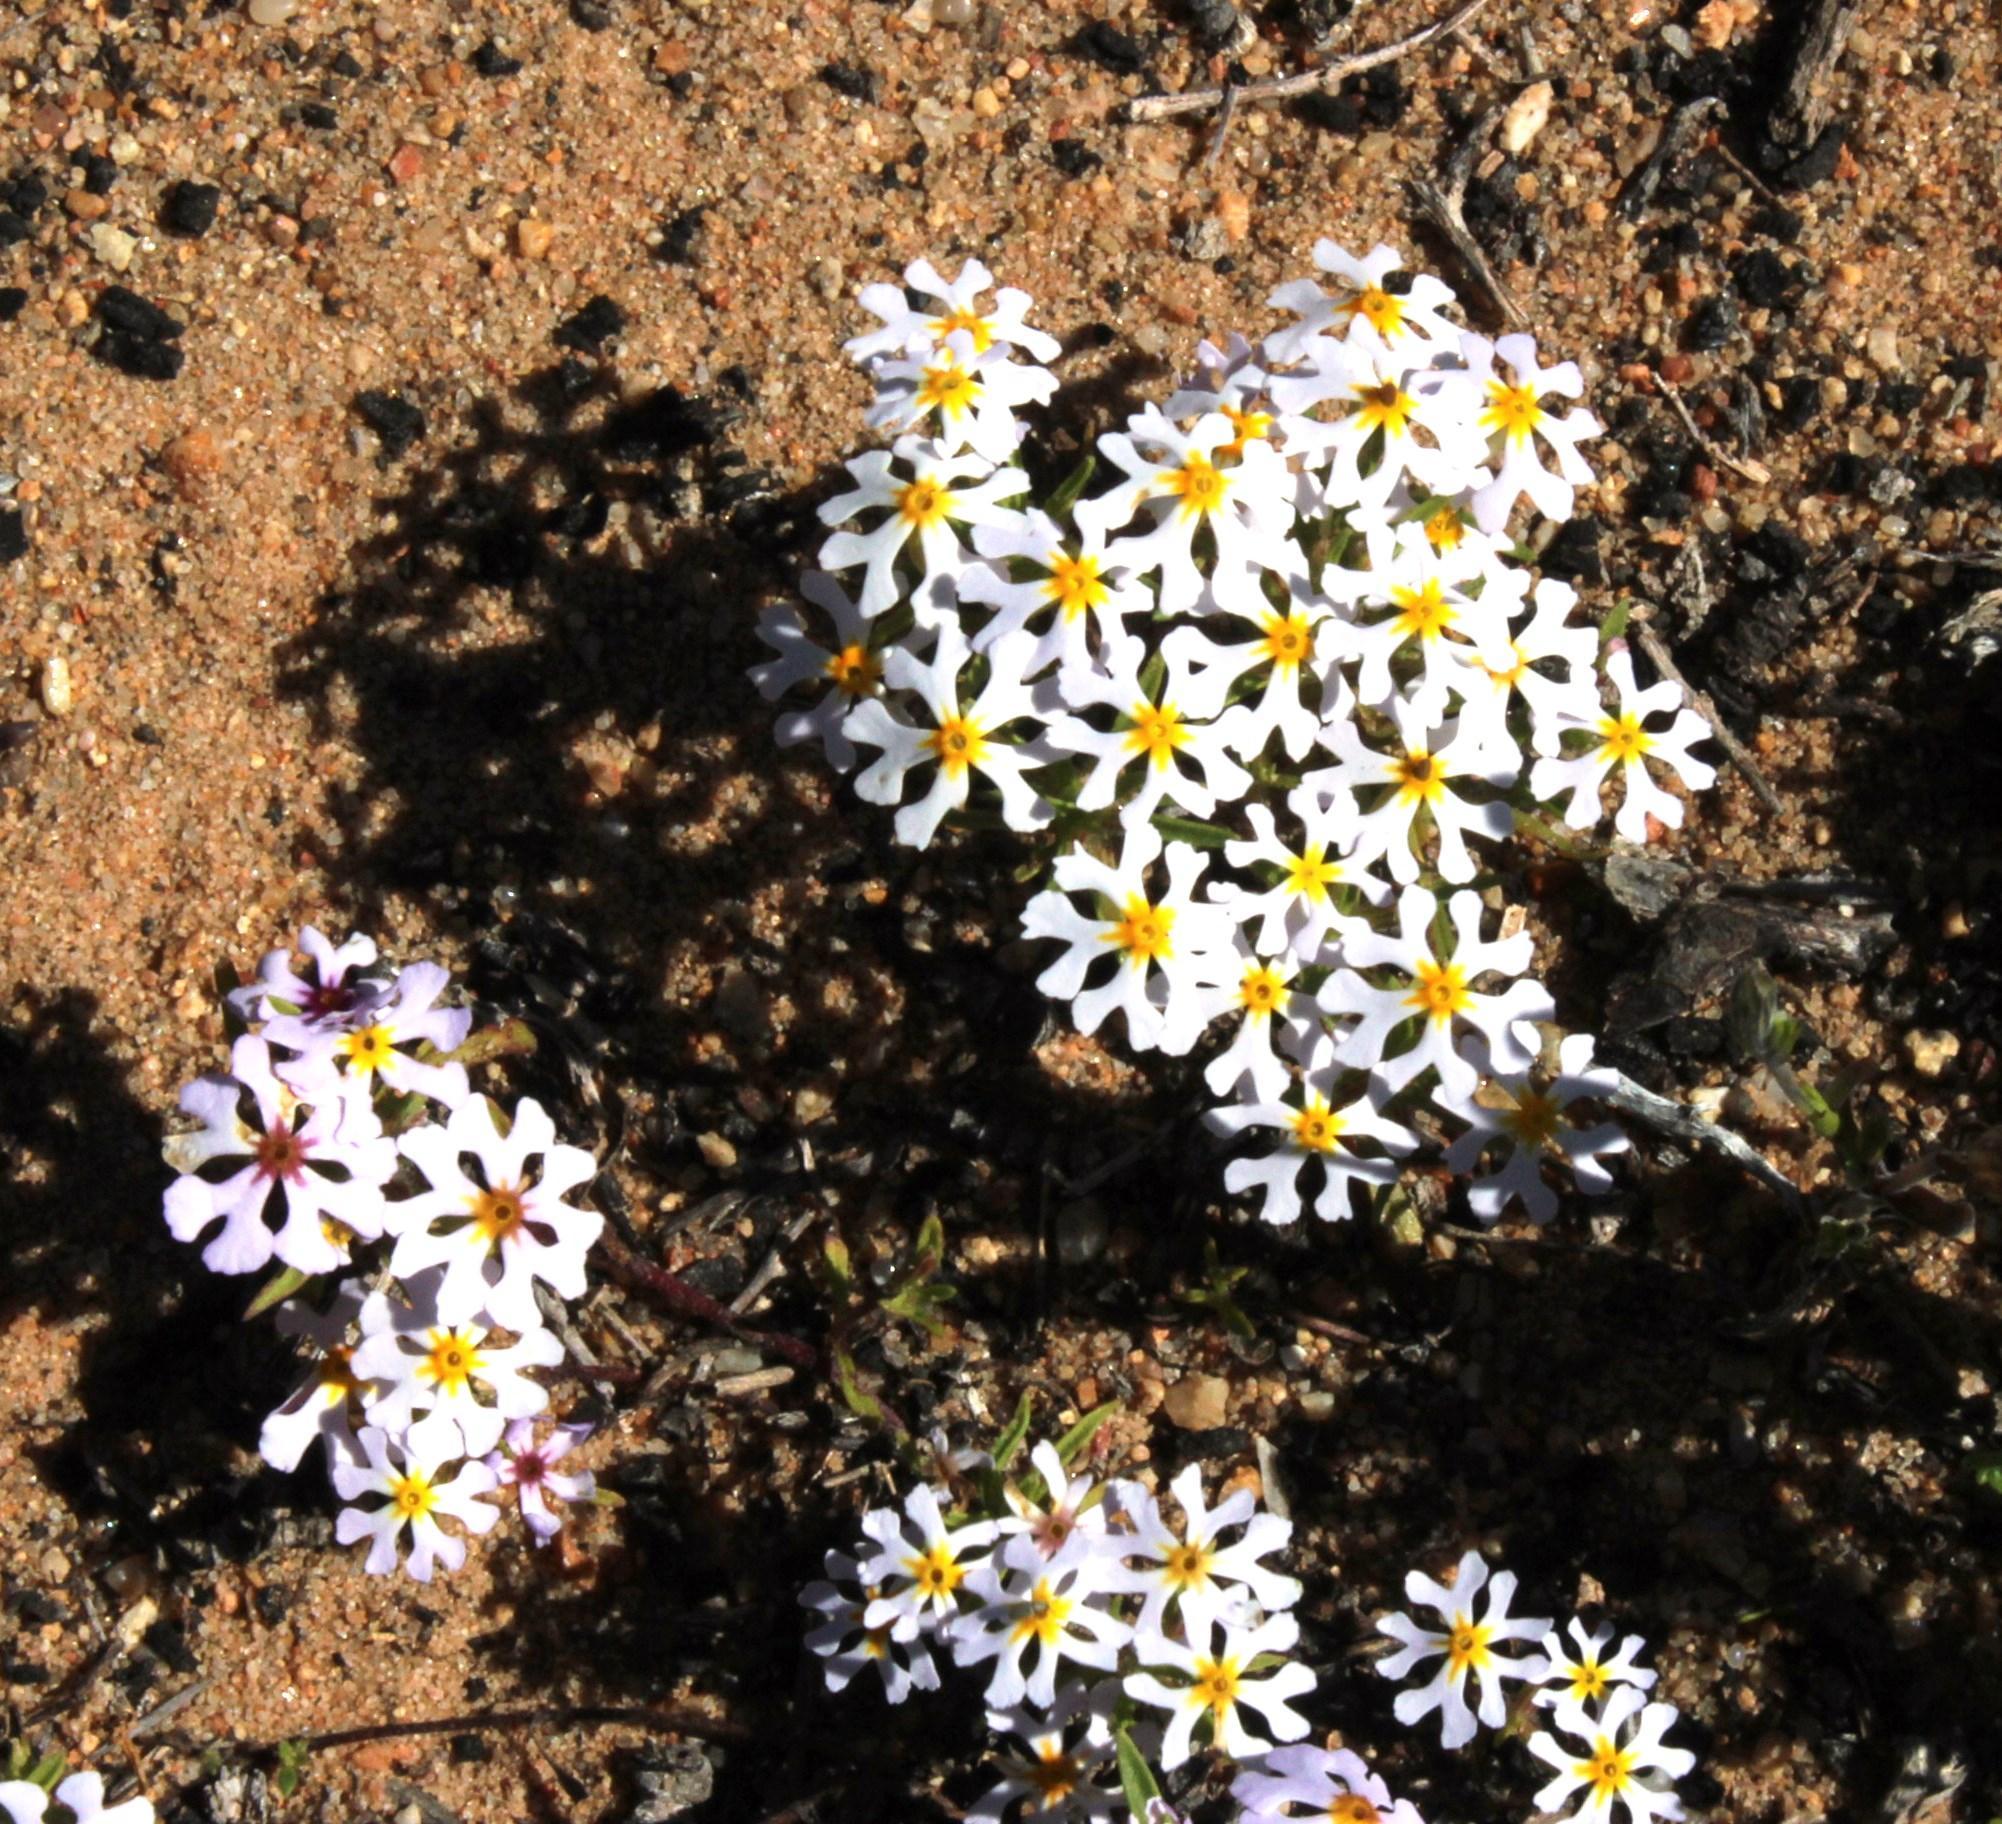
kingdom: Plantae
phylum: Tracheophyta
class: Magnoliopsida
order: Lamiales
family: Scrophulariaceae
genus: Zaluzianskya
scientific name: Zaluzianskya affinis
